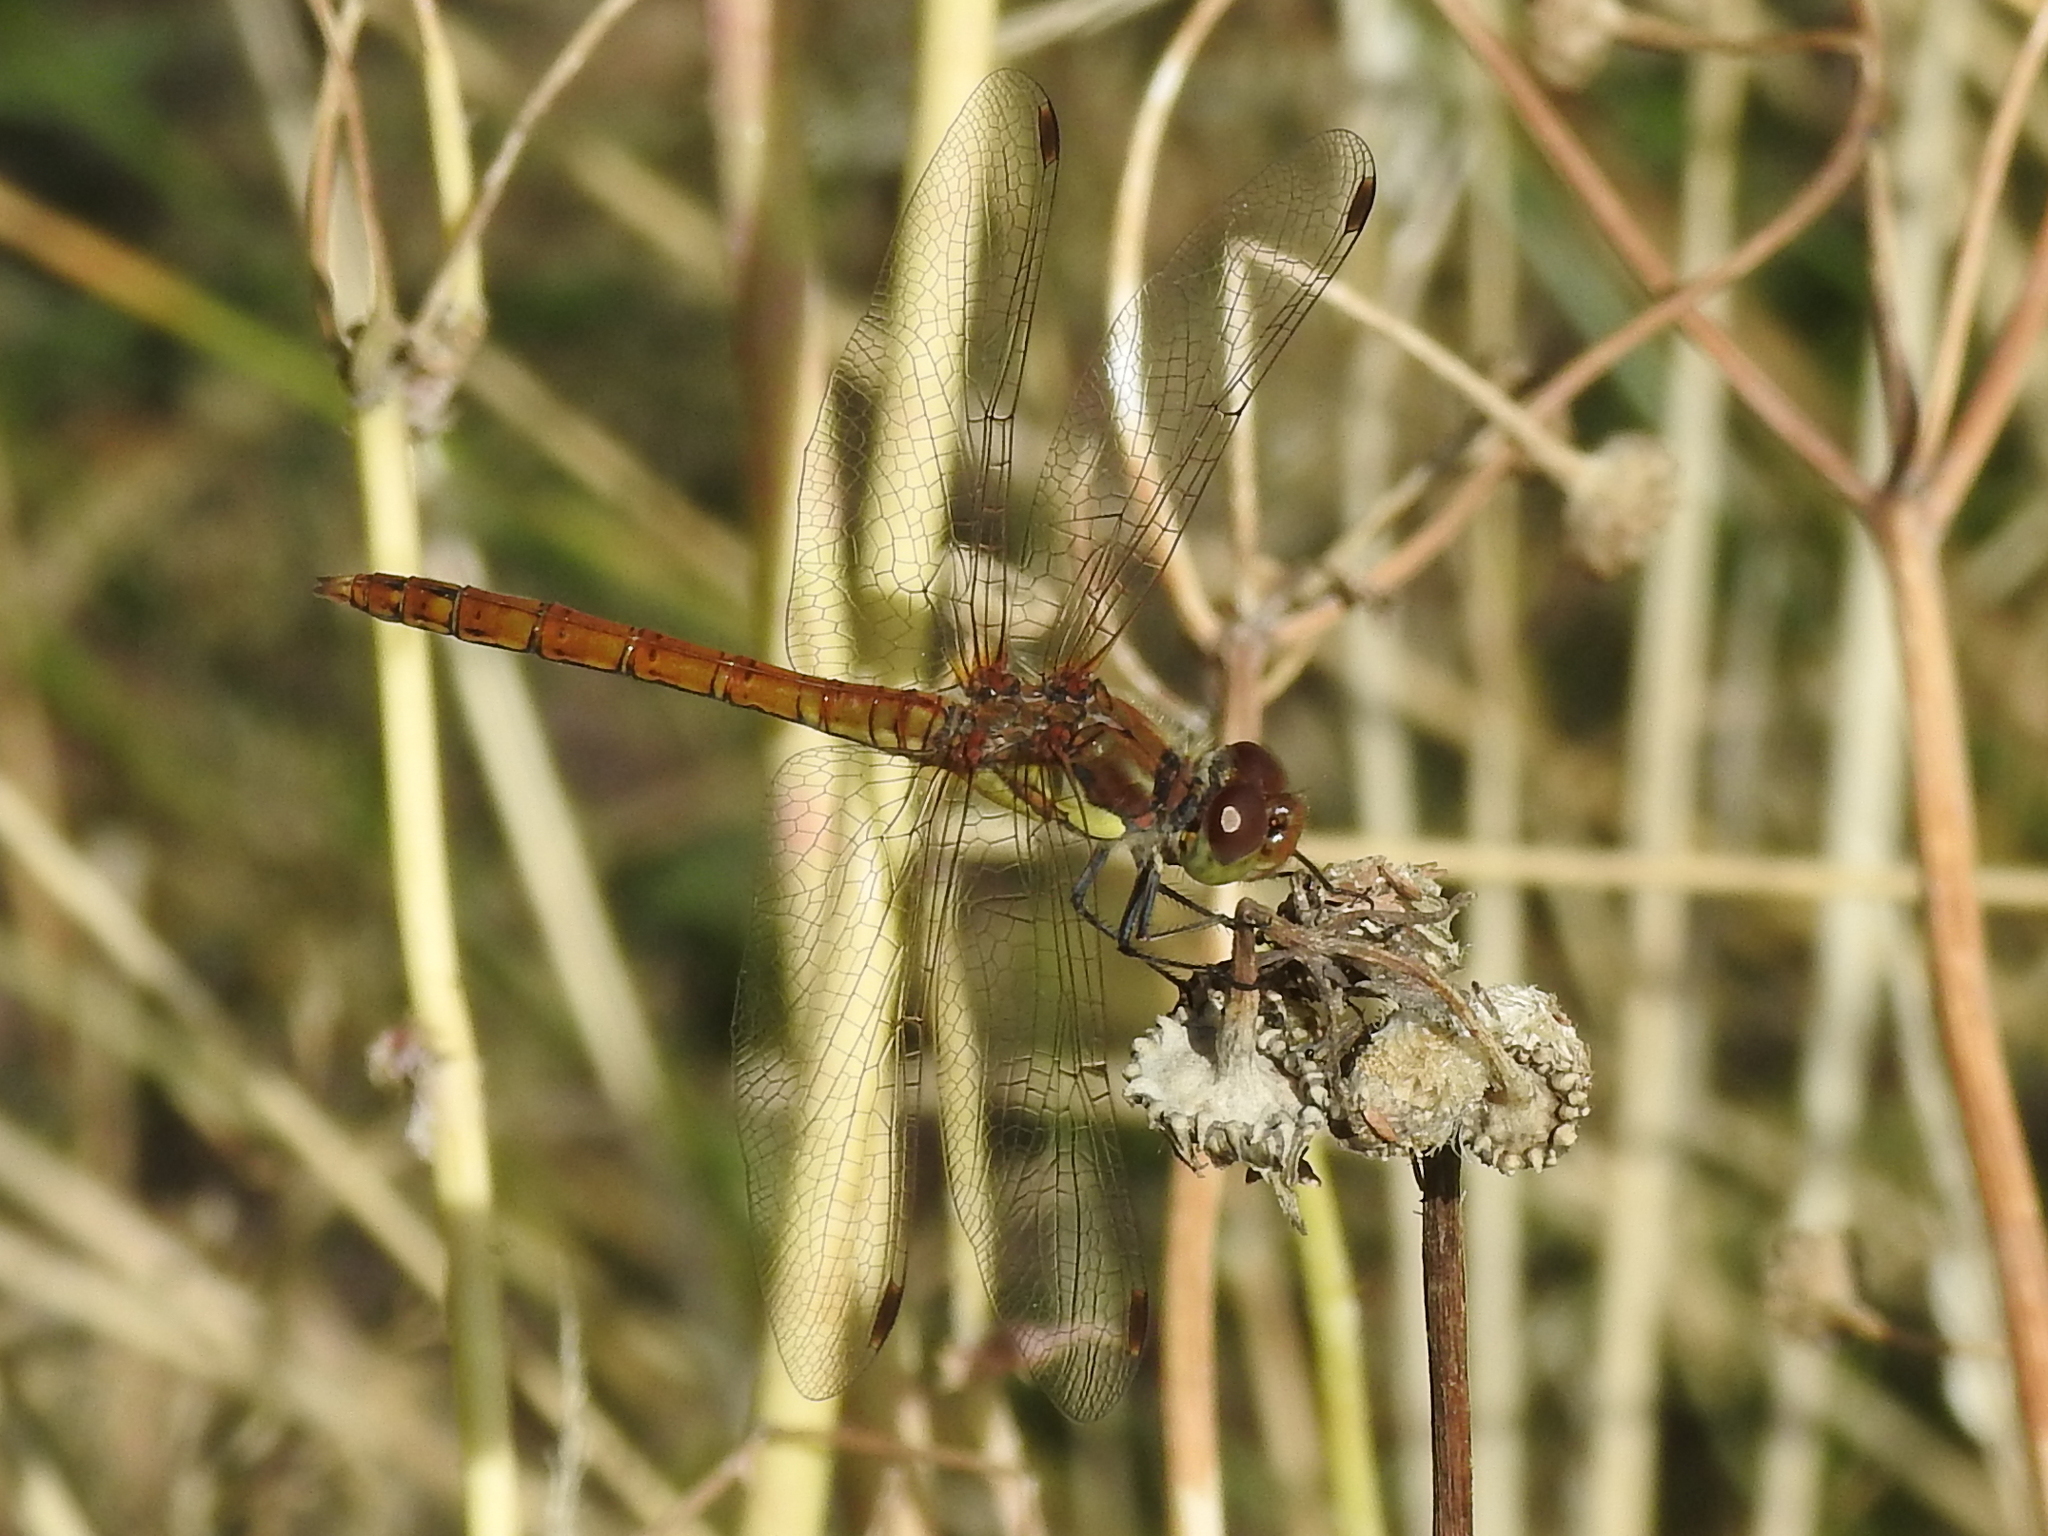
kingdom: Animalia
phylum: Arthropoda
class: Insecta
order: Odonata
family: Libellulidae
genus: Sympetrum
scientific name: Sympetrum striolatum
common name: Common darter
